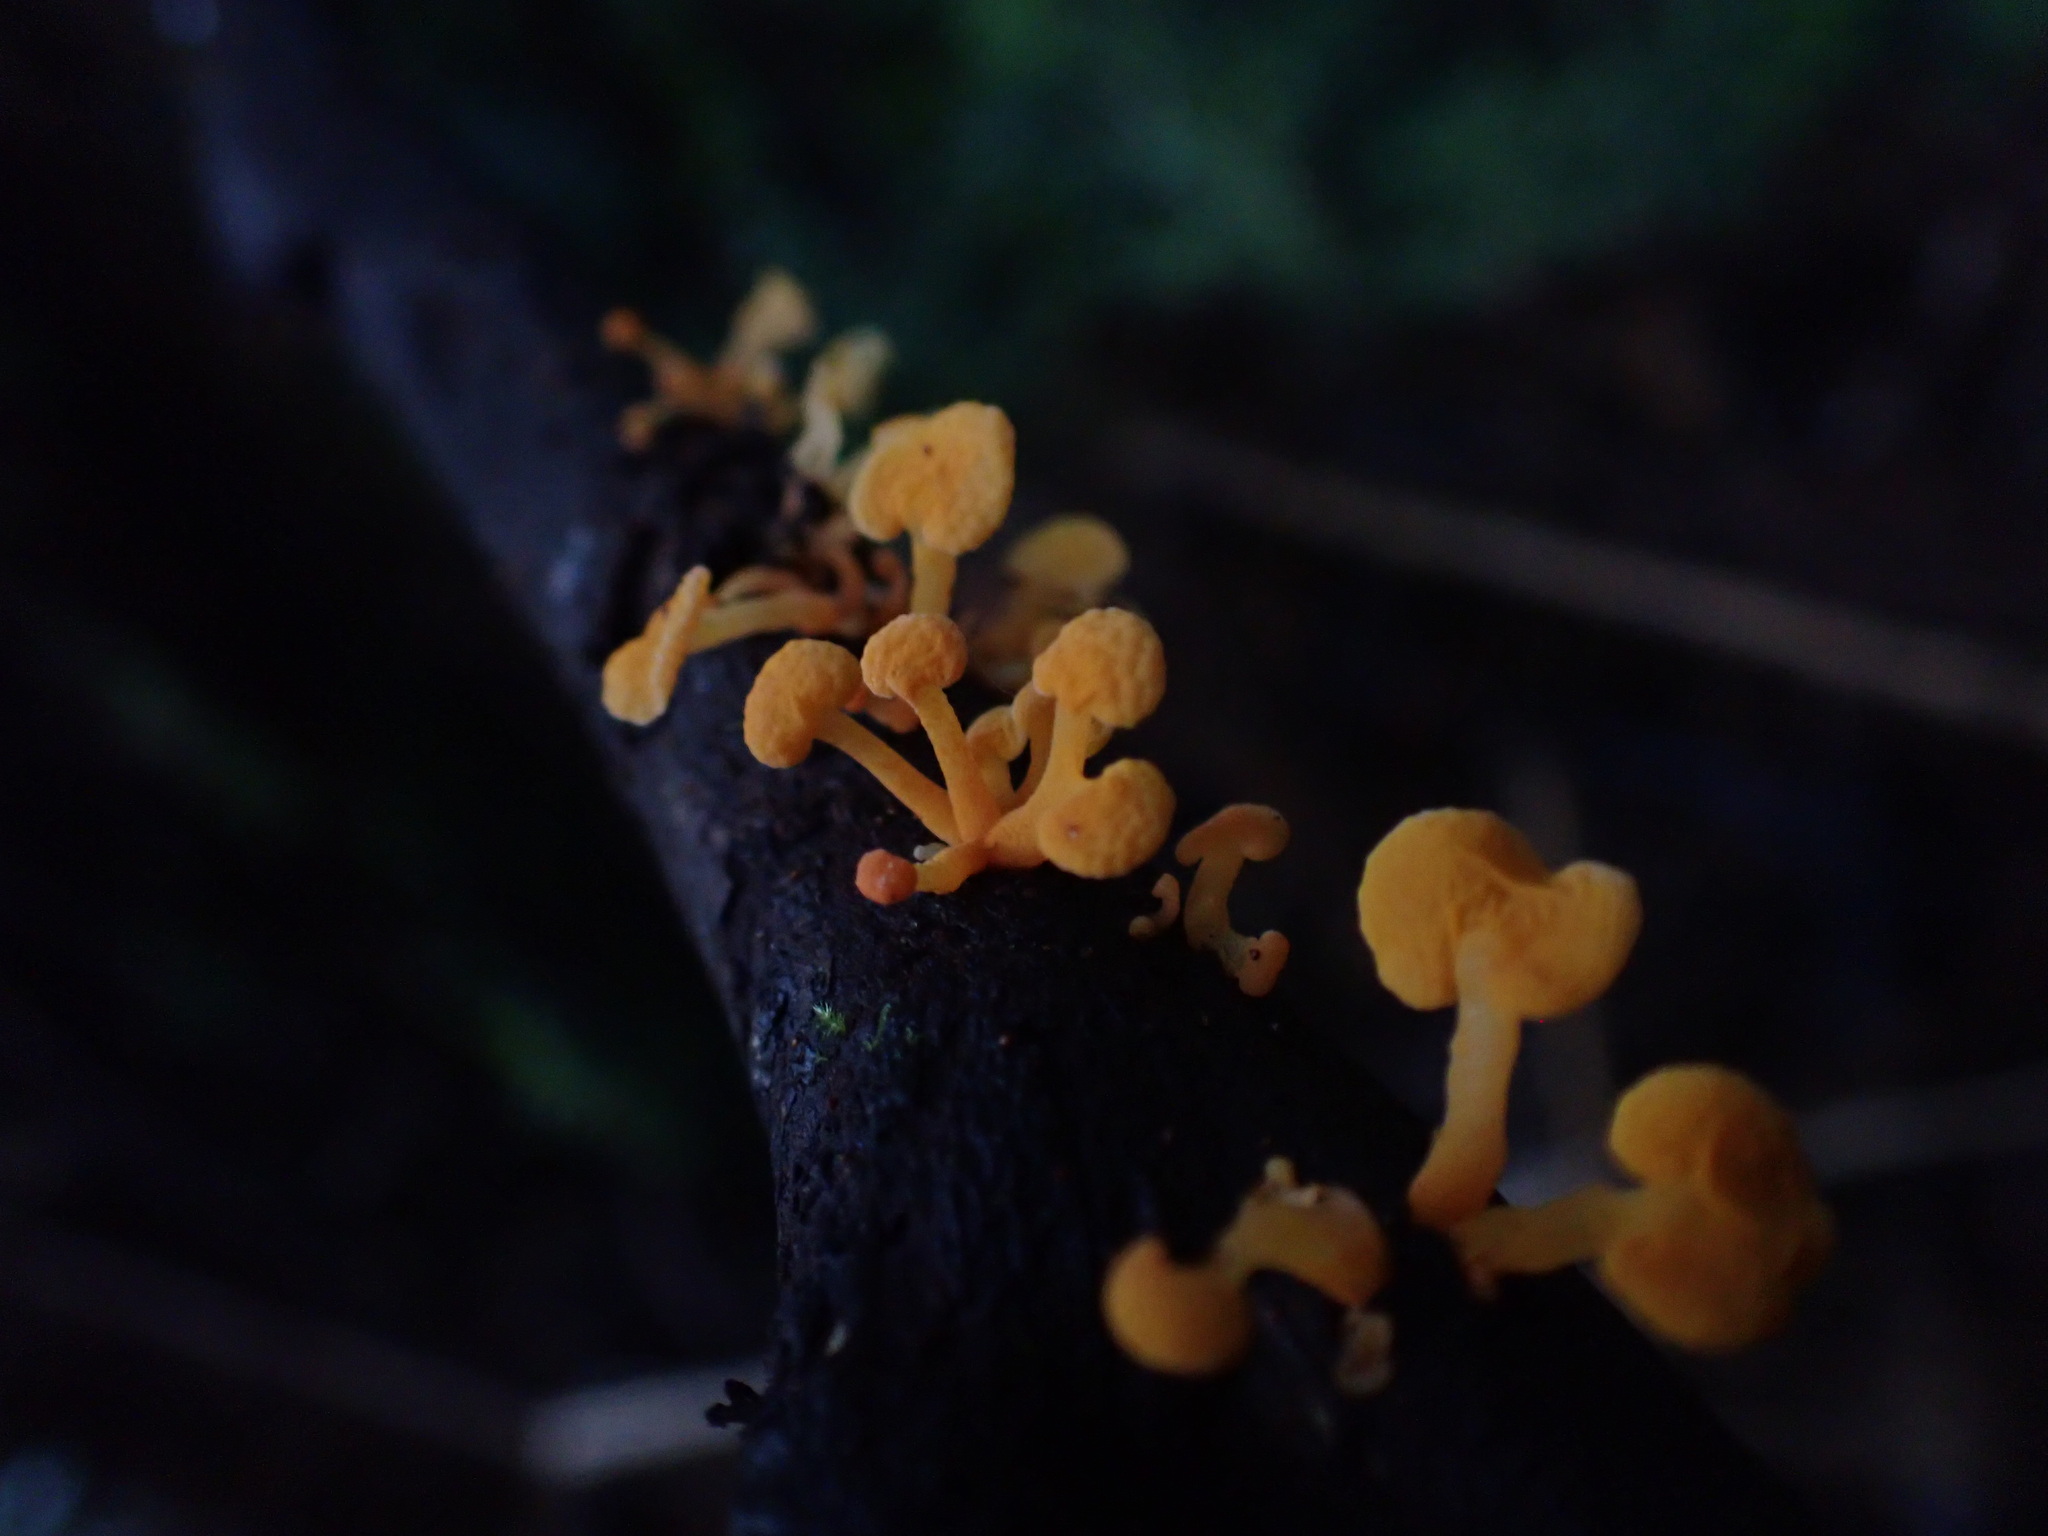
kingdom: Fungi
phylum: Basidiomycota
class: Agaricomycetes
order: Agaricales
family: Mycenaceae
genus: Favolaschia
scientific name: Favolaschia claudopus
